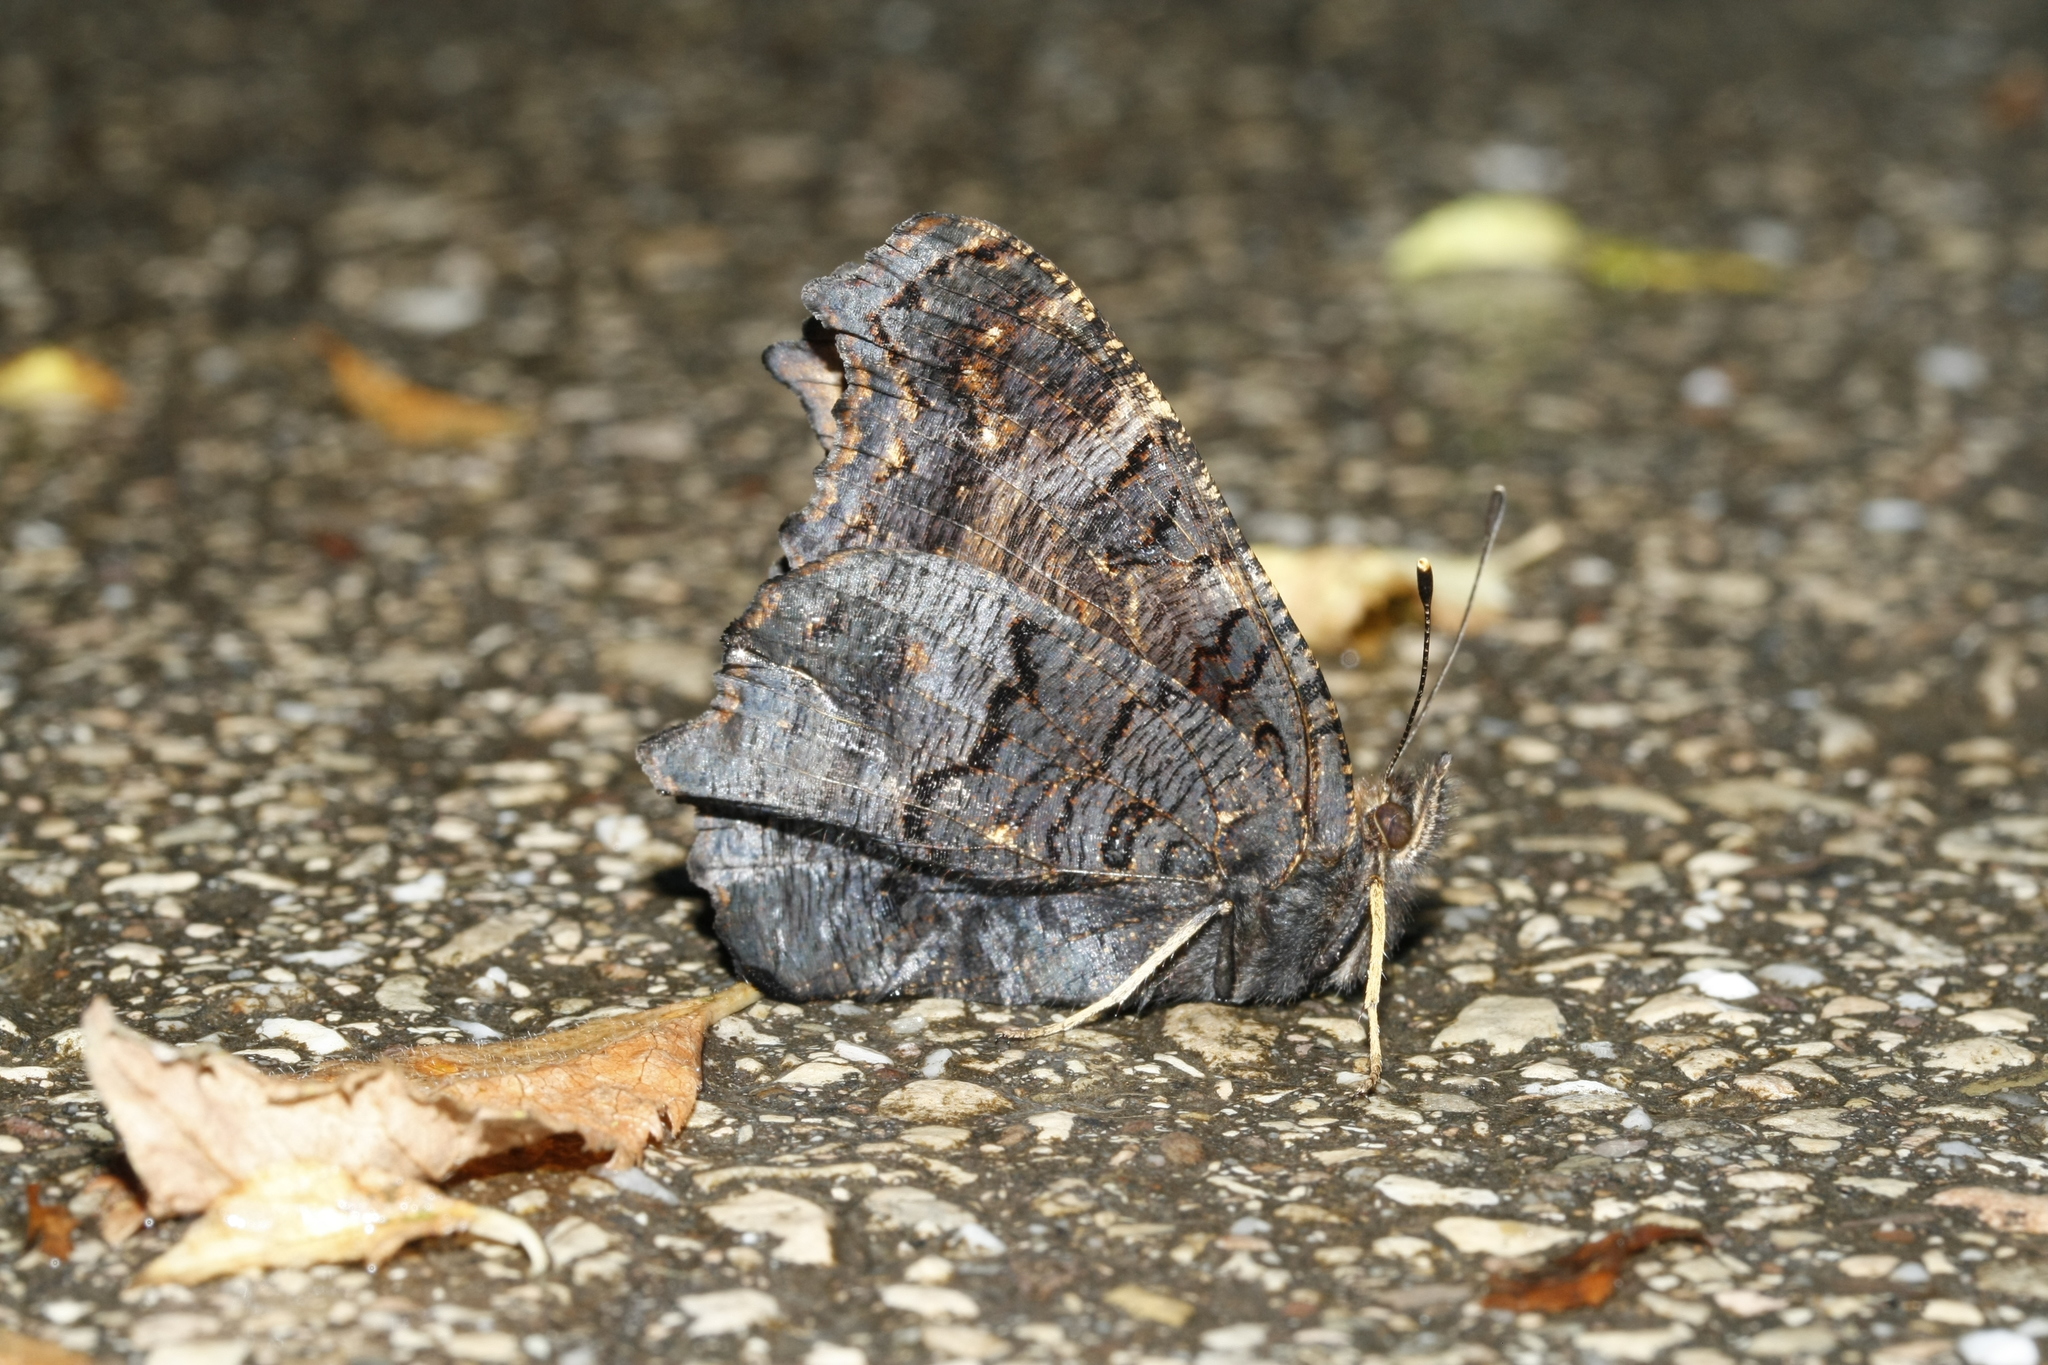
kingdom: Animalia
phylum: Arthropoda
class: Insecta
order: Lepidoptera
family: Nymphalidae
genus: Aglais
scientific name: Aglais io
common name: Peacock
